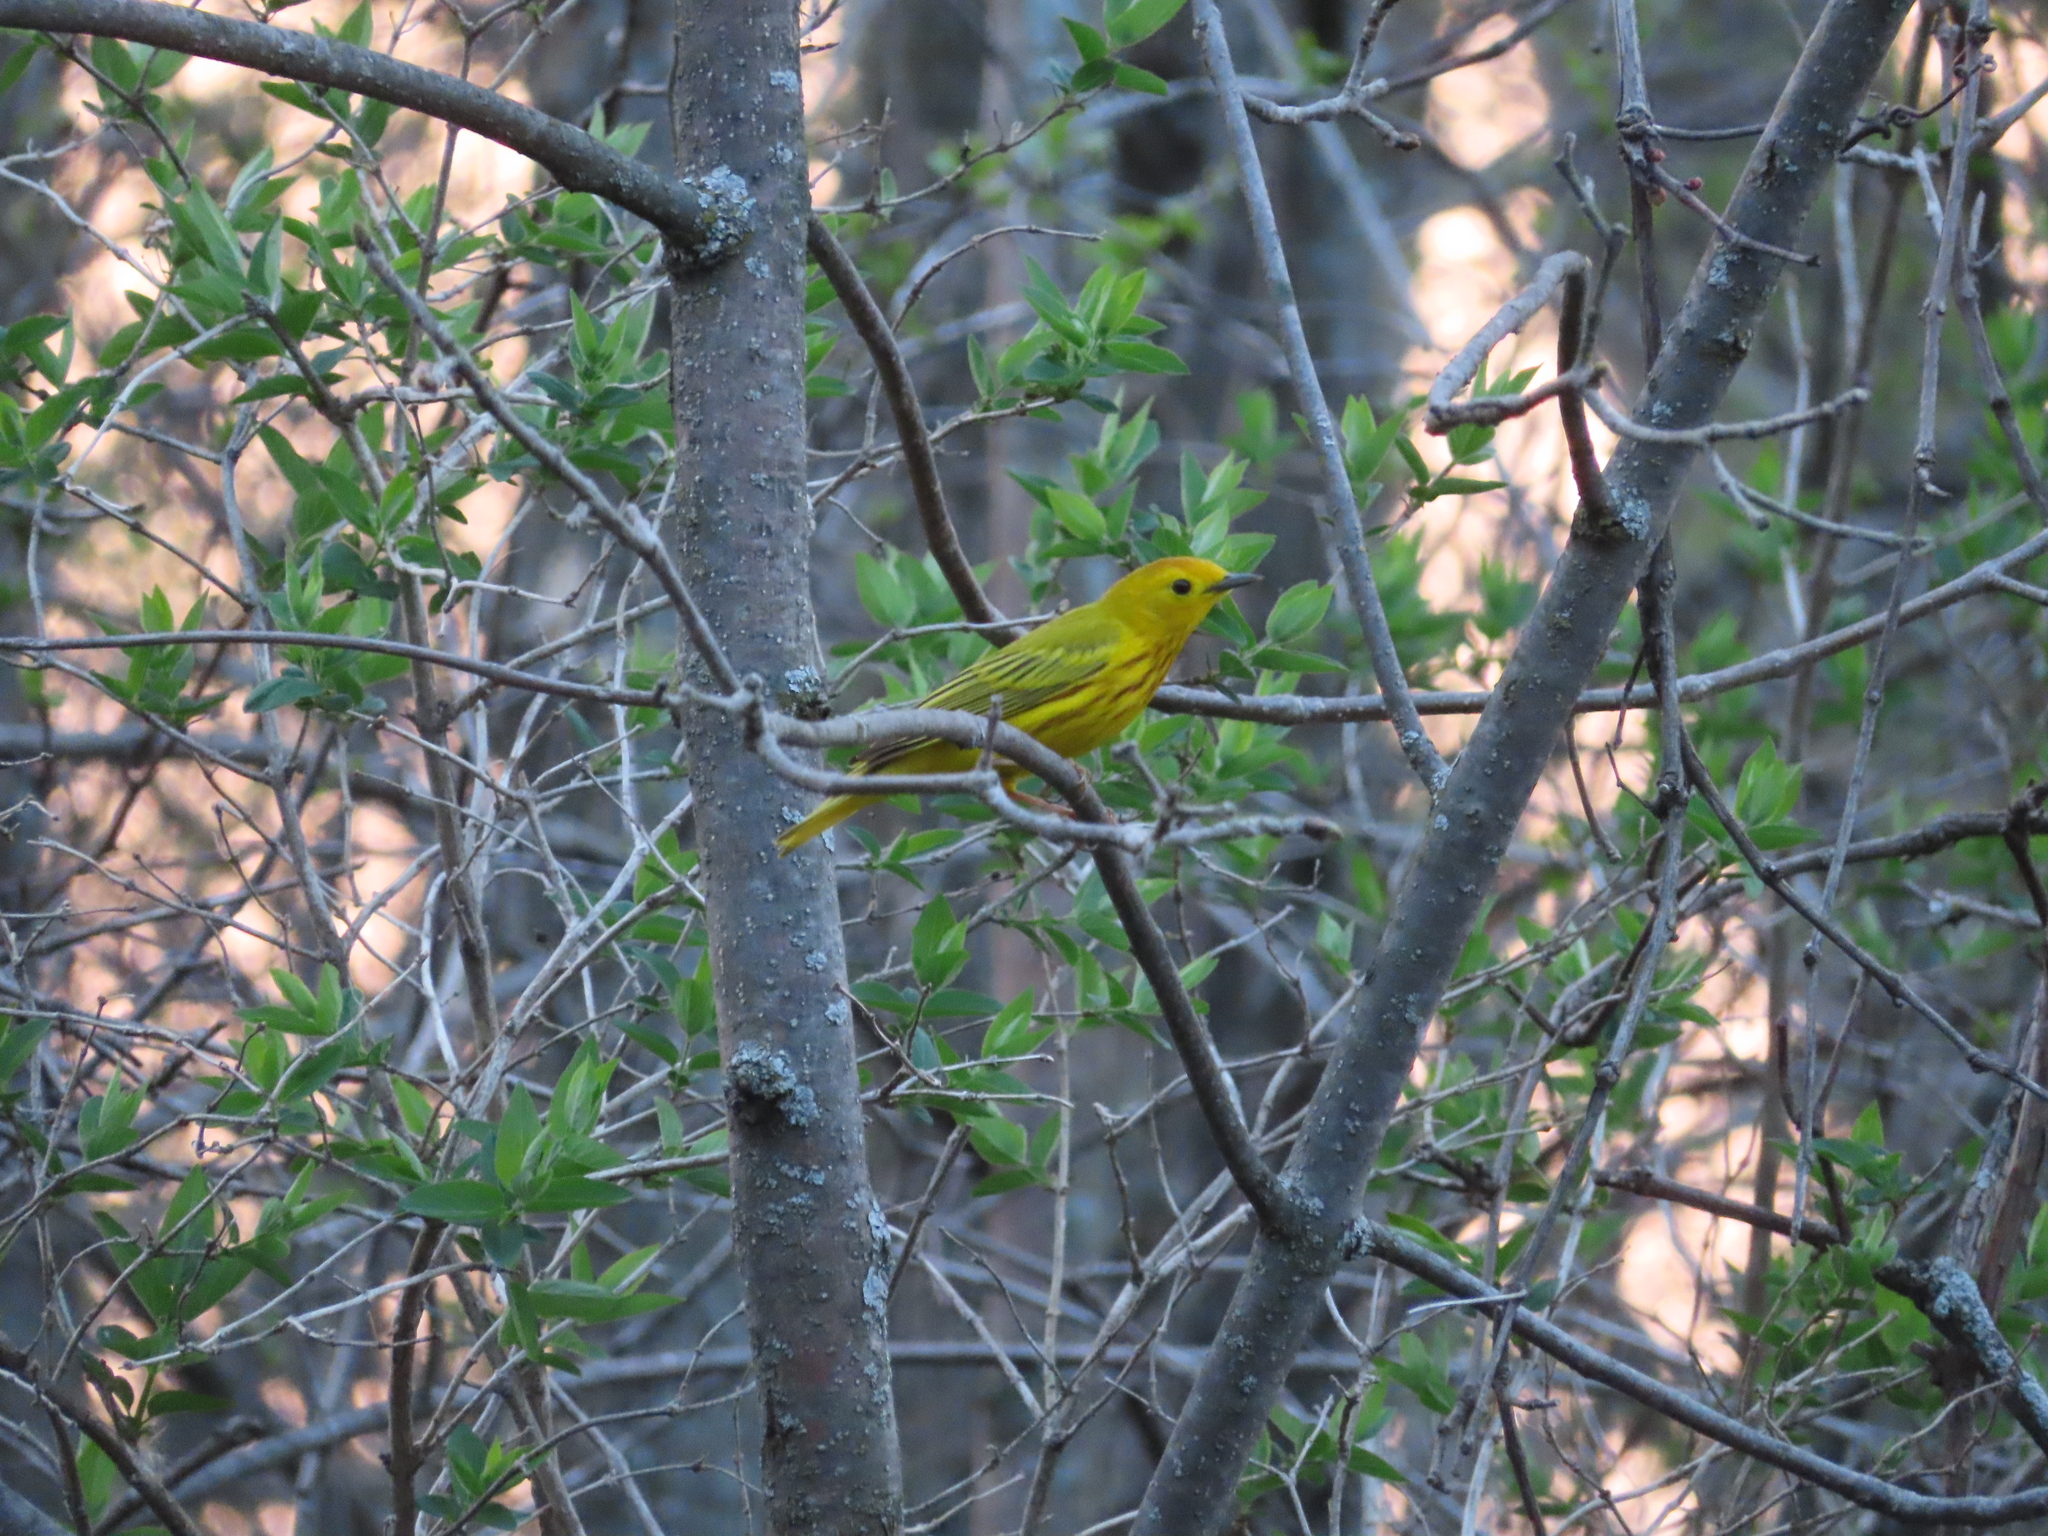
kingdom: Animalia
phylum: Chordata
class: Aves
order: Passeriformes
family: Parulidae
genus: Setophaga
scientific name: Setophaga petechia
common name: Yellow warbler
